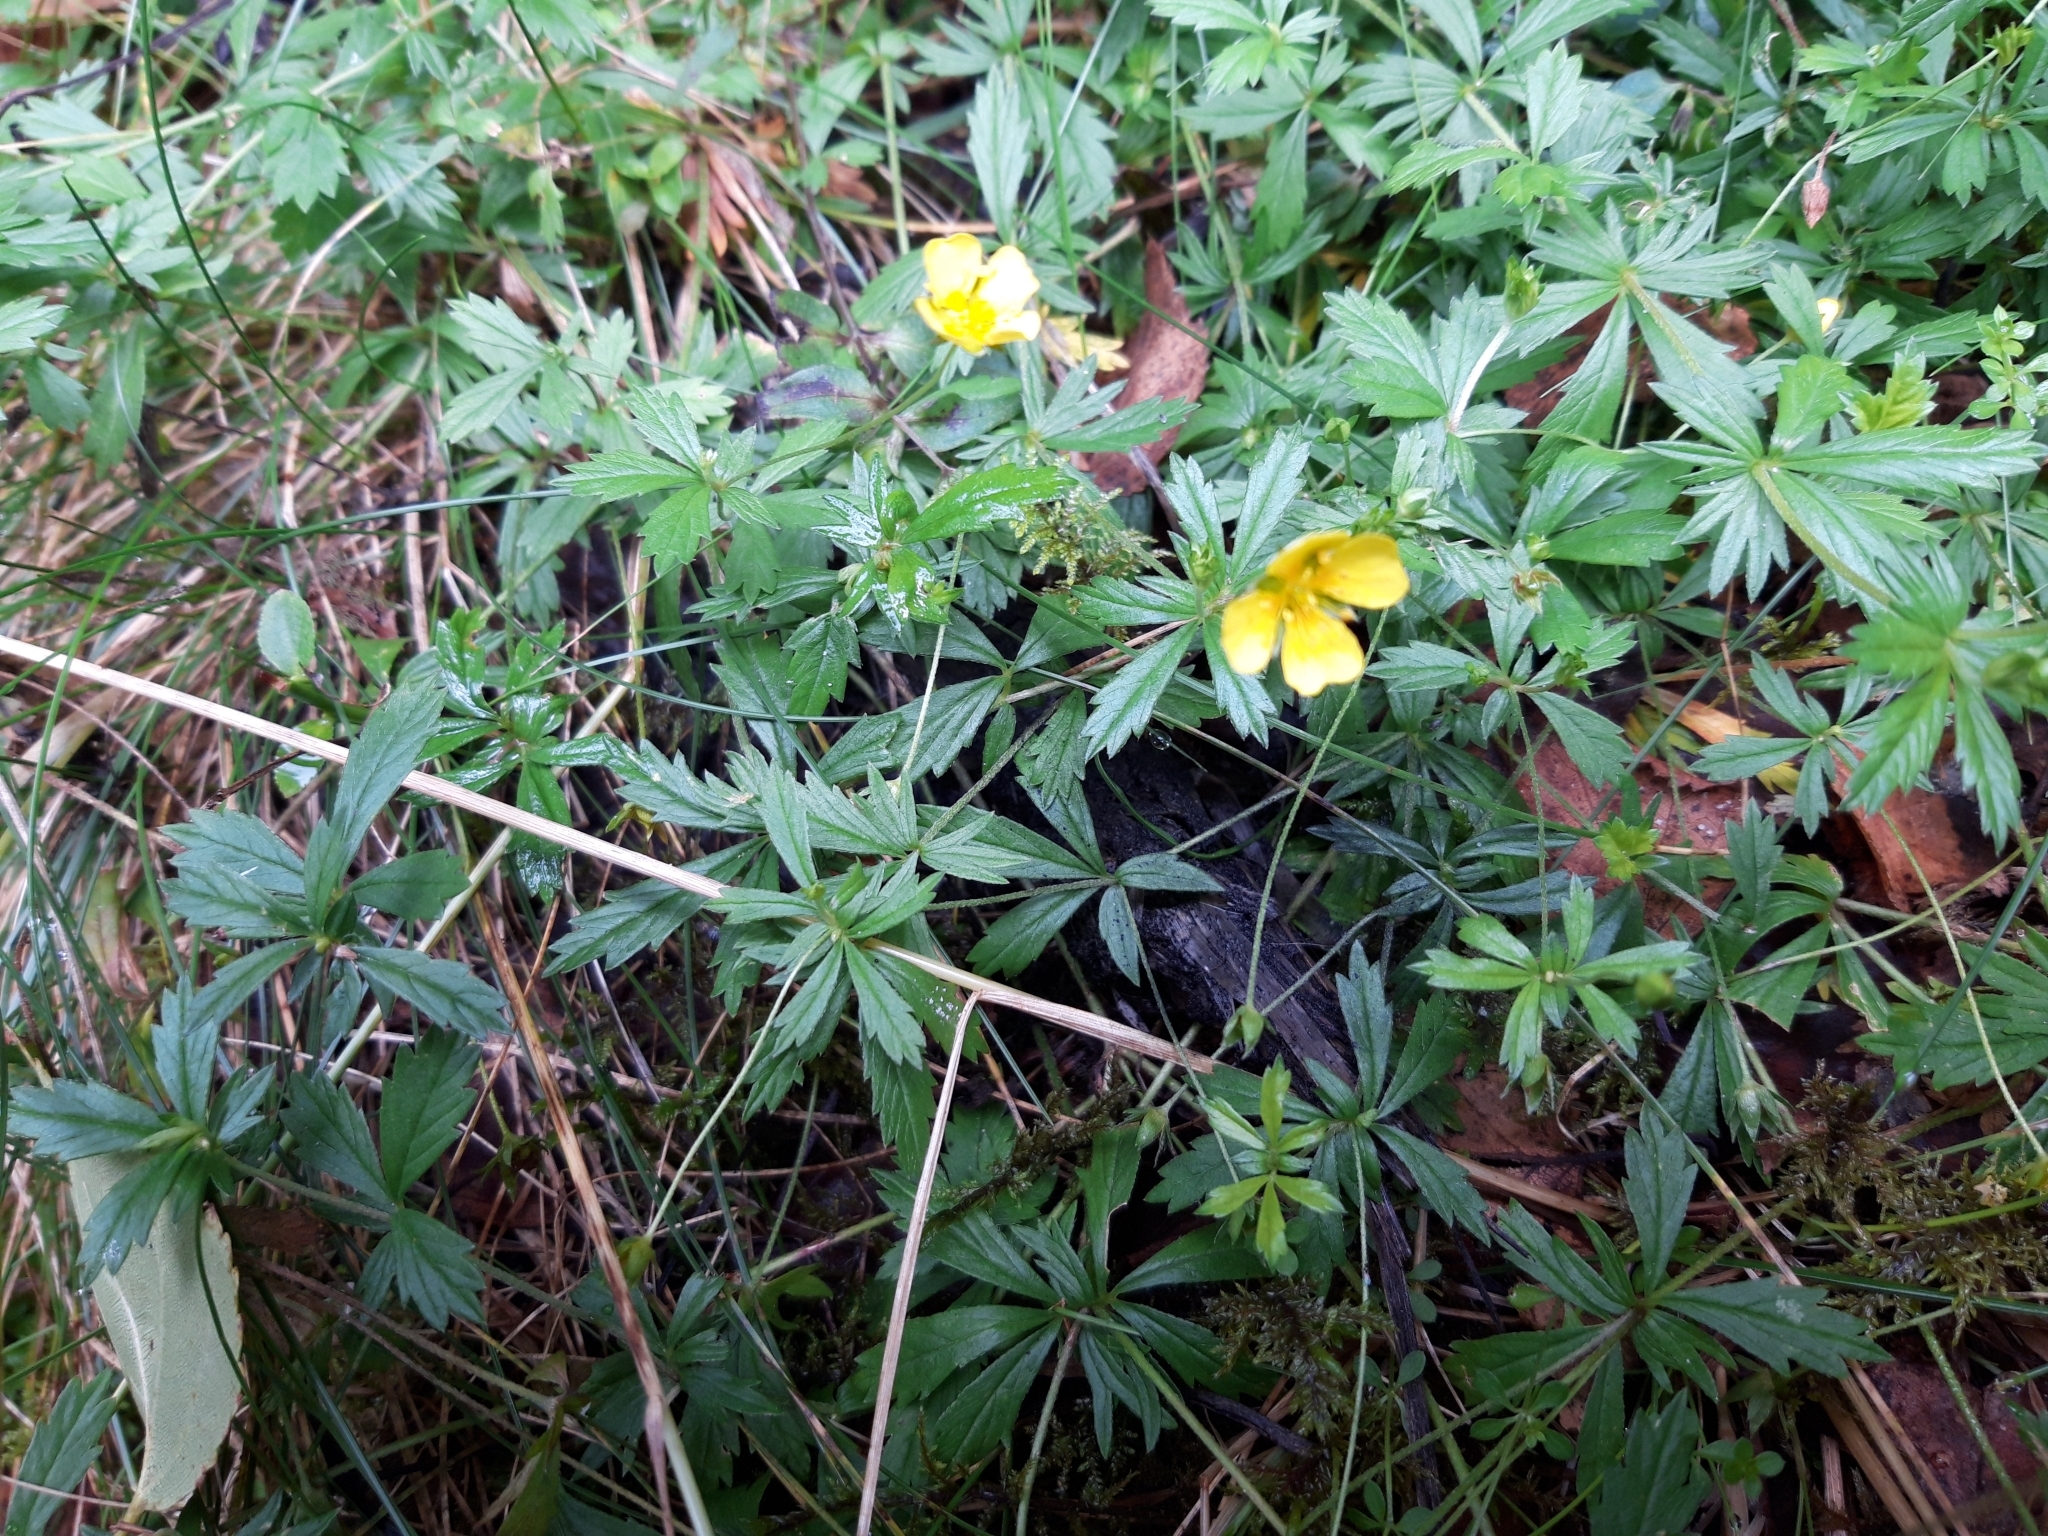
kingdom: Plantae
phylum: Tracheophyta
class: Magnoliopsida
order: Rosales
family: Rosaceae
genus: Potentilla
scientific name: Potentilla erecta
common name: Tormentil
